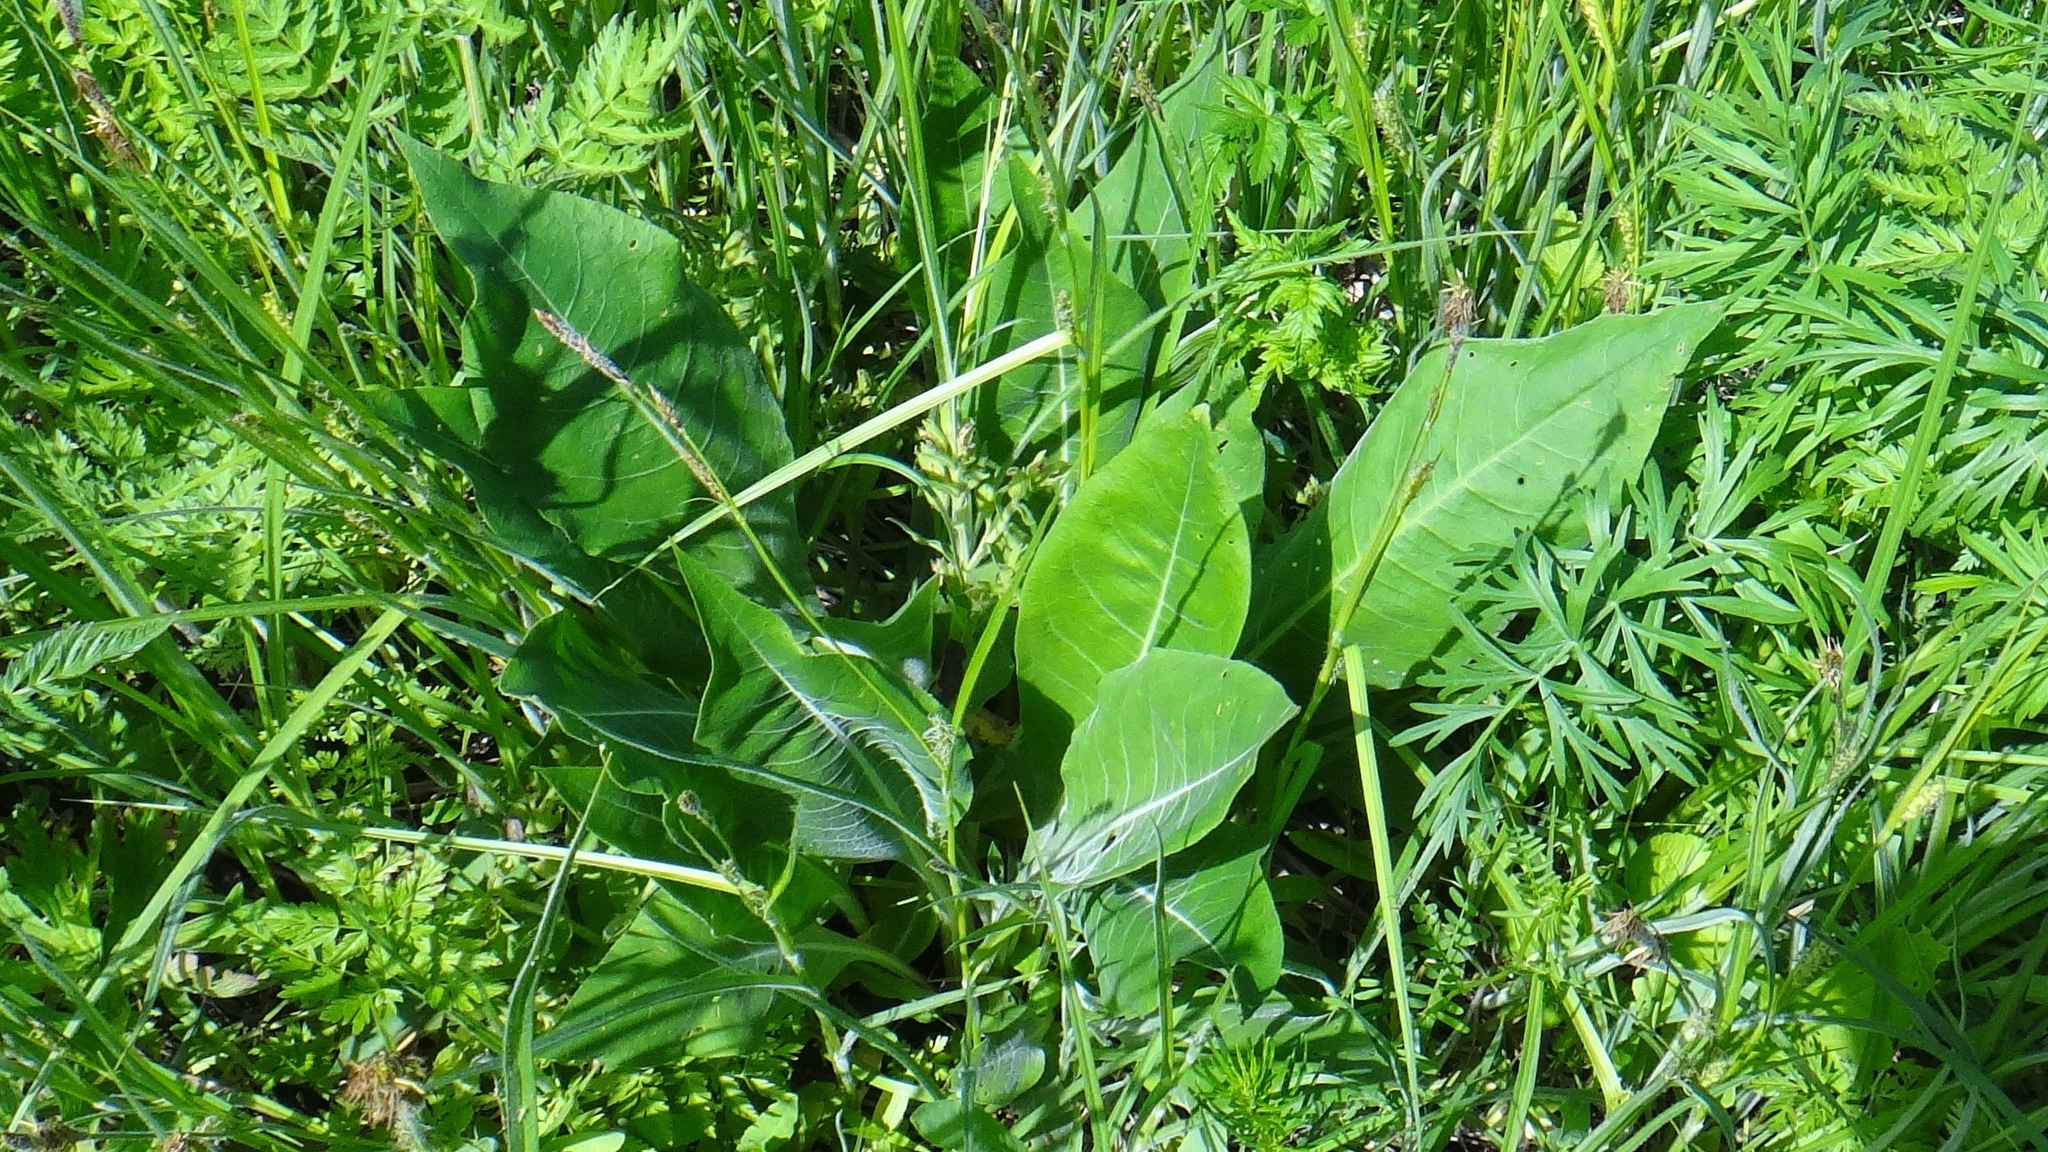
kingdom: Plantae
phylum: Tracheophyta
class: Magnoliopsida
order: Boraginales
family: Boraginaceae
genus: Pulmonaria
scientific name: Pulmonaria mollis
